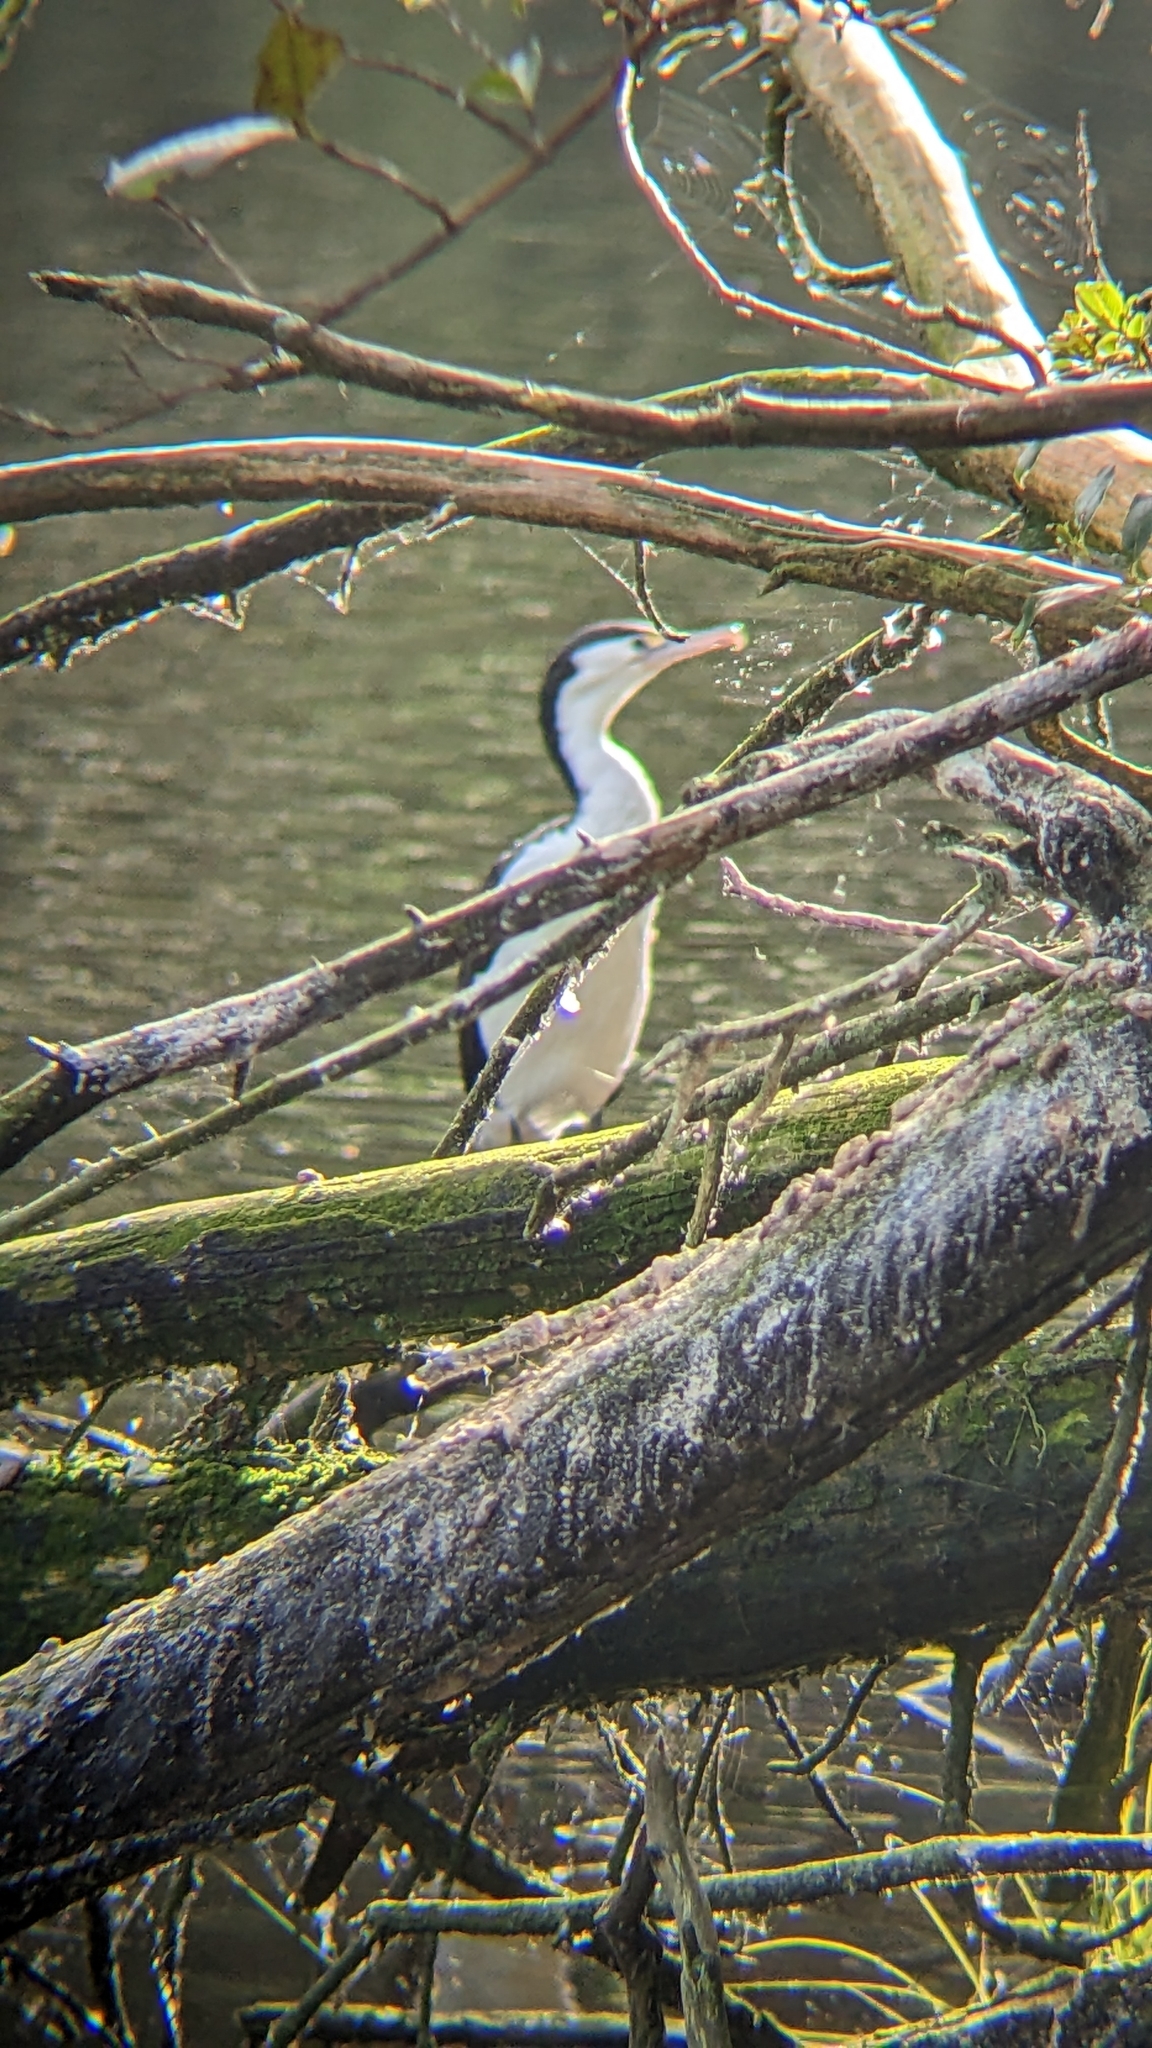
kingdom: Animalia
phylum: Chordata
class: Aves
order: Suliformes
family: Phalacrocoracidae
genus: Phalacrocorax
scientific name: Phalacrocorax varius
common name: Pied cormorant
